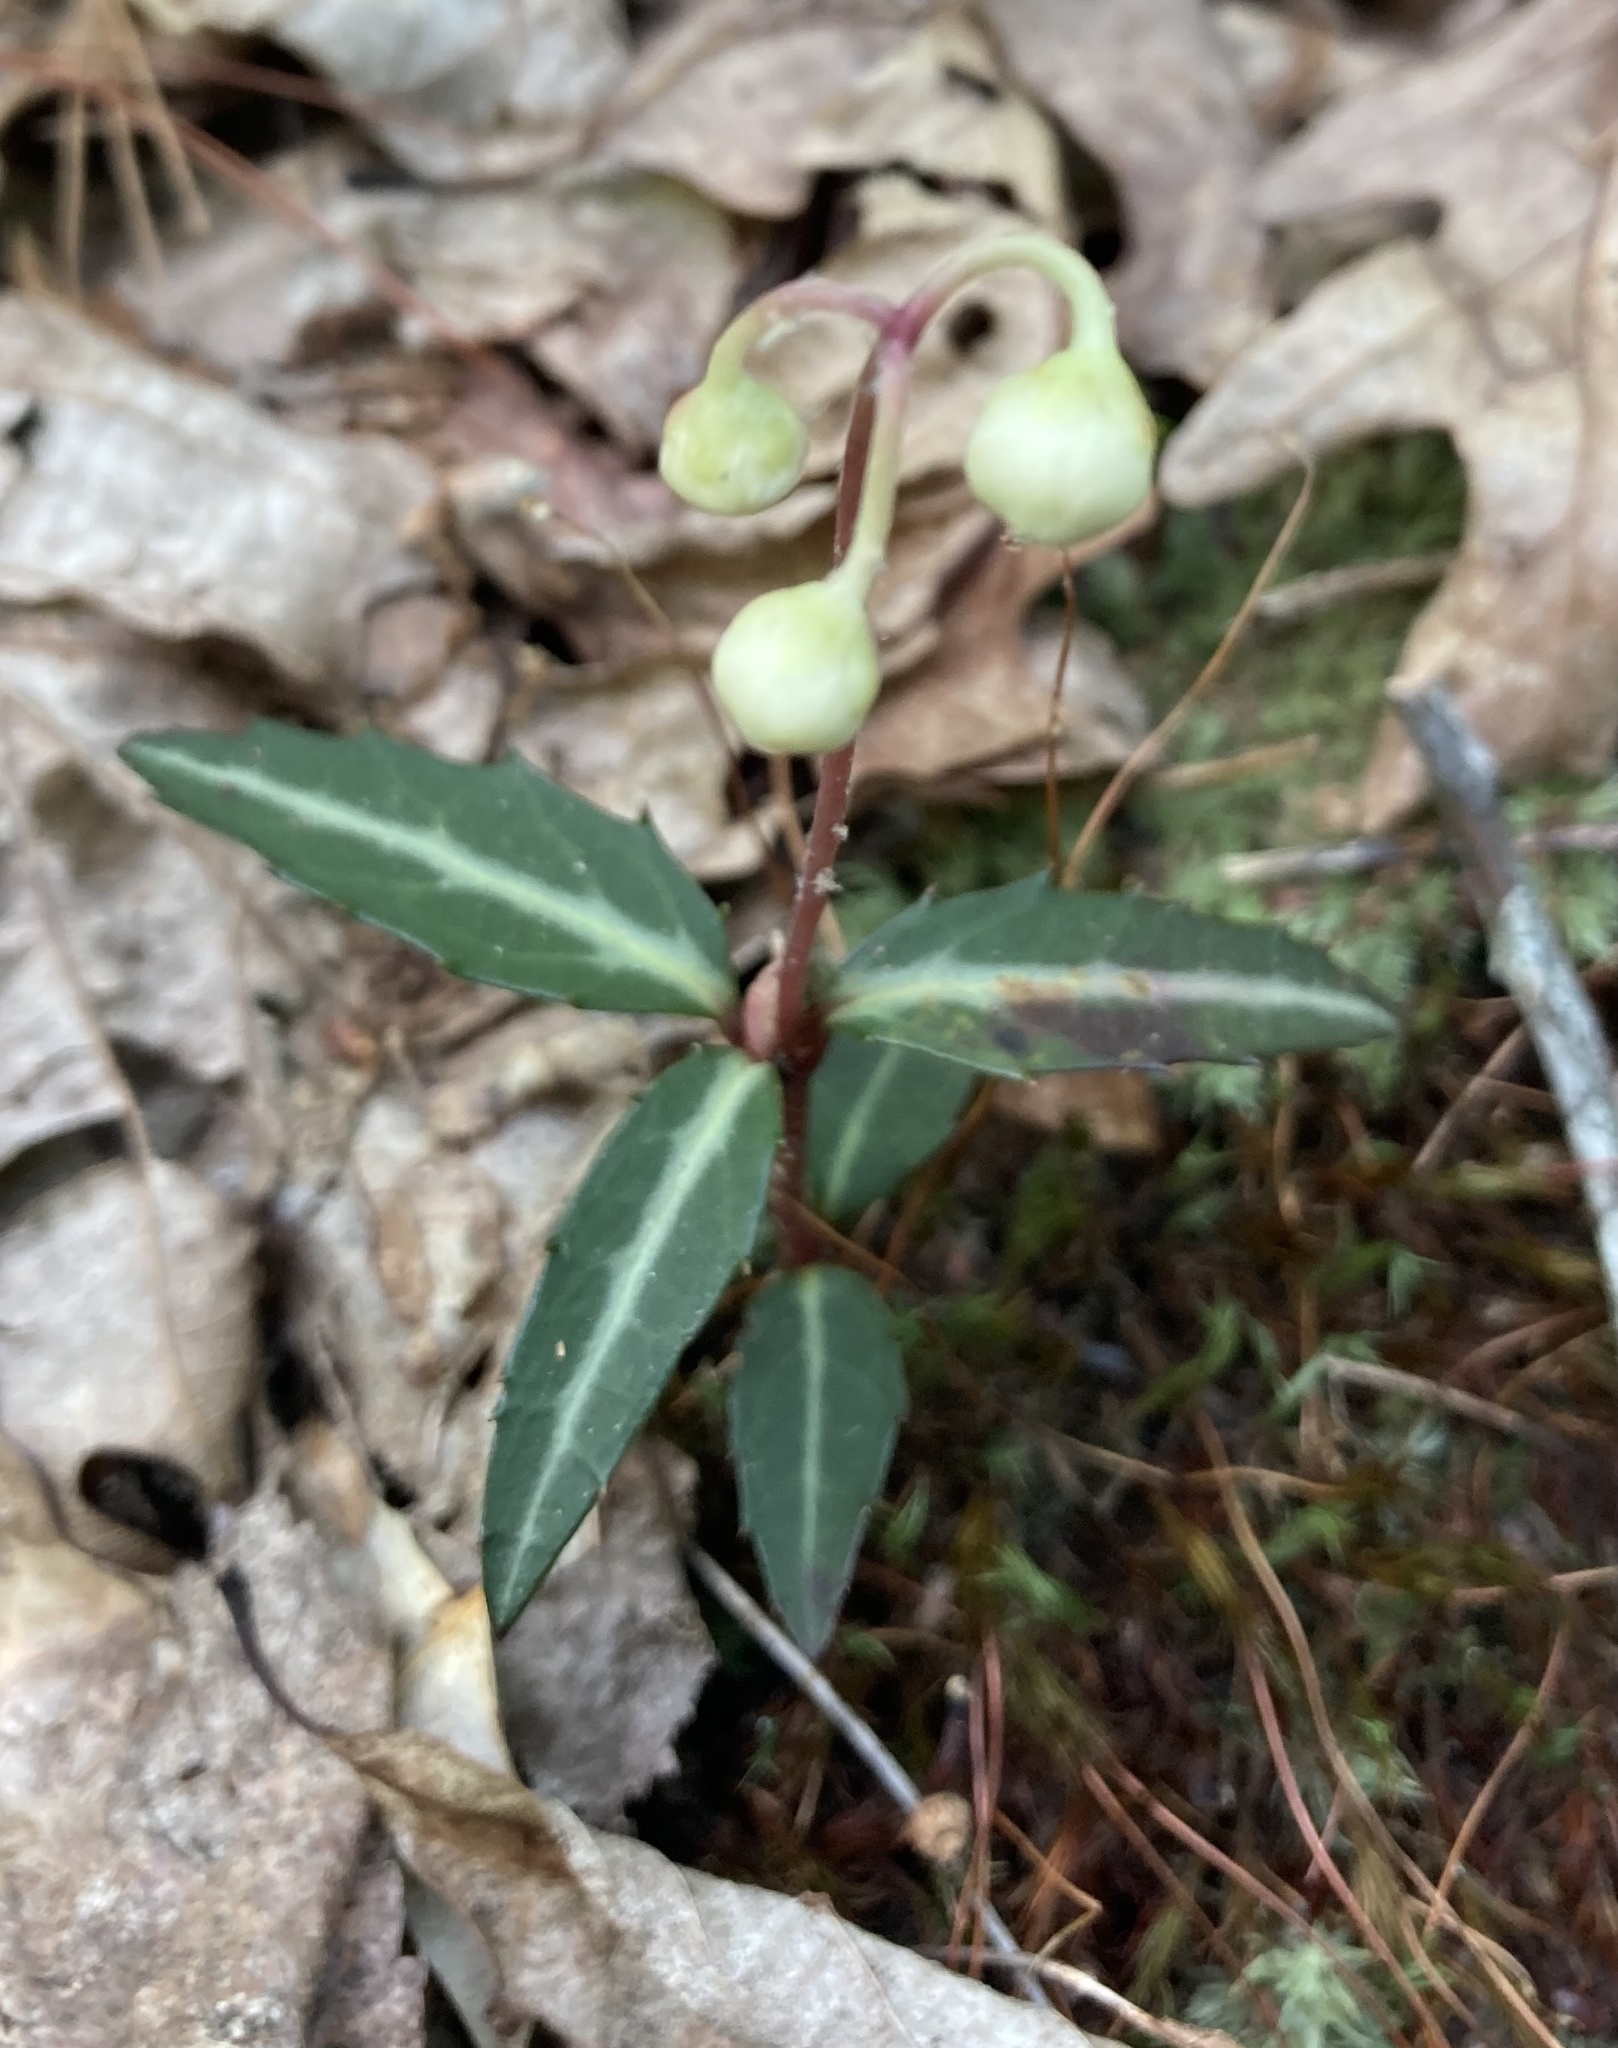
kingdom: Plantae
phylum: Tracheophyta
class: Magnoliopsida
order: Ericales
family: Ericaceae
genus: Chimaphila
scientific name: Chimaphila maculata
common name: Spotted pipsissewa
